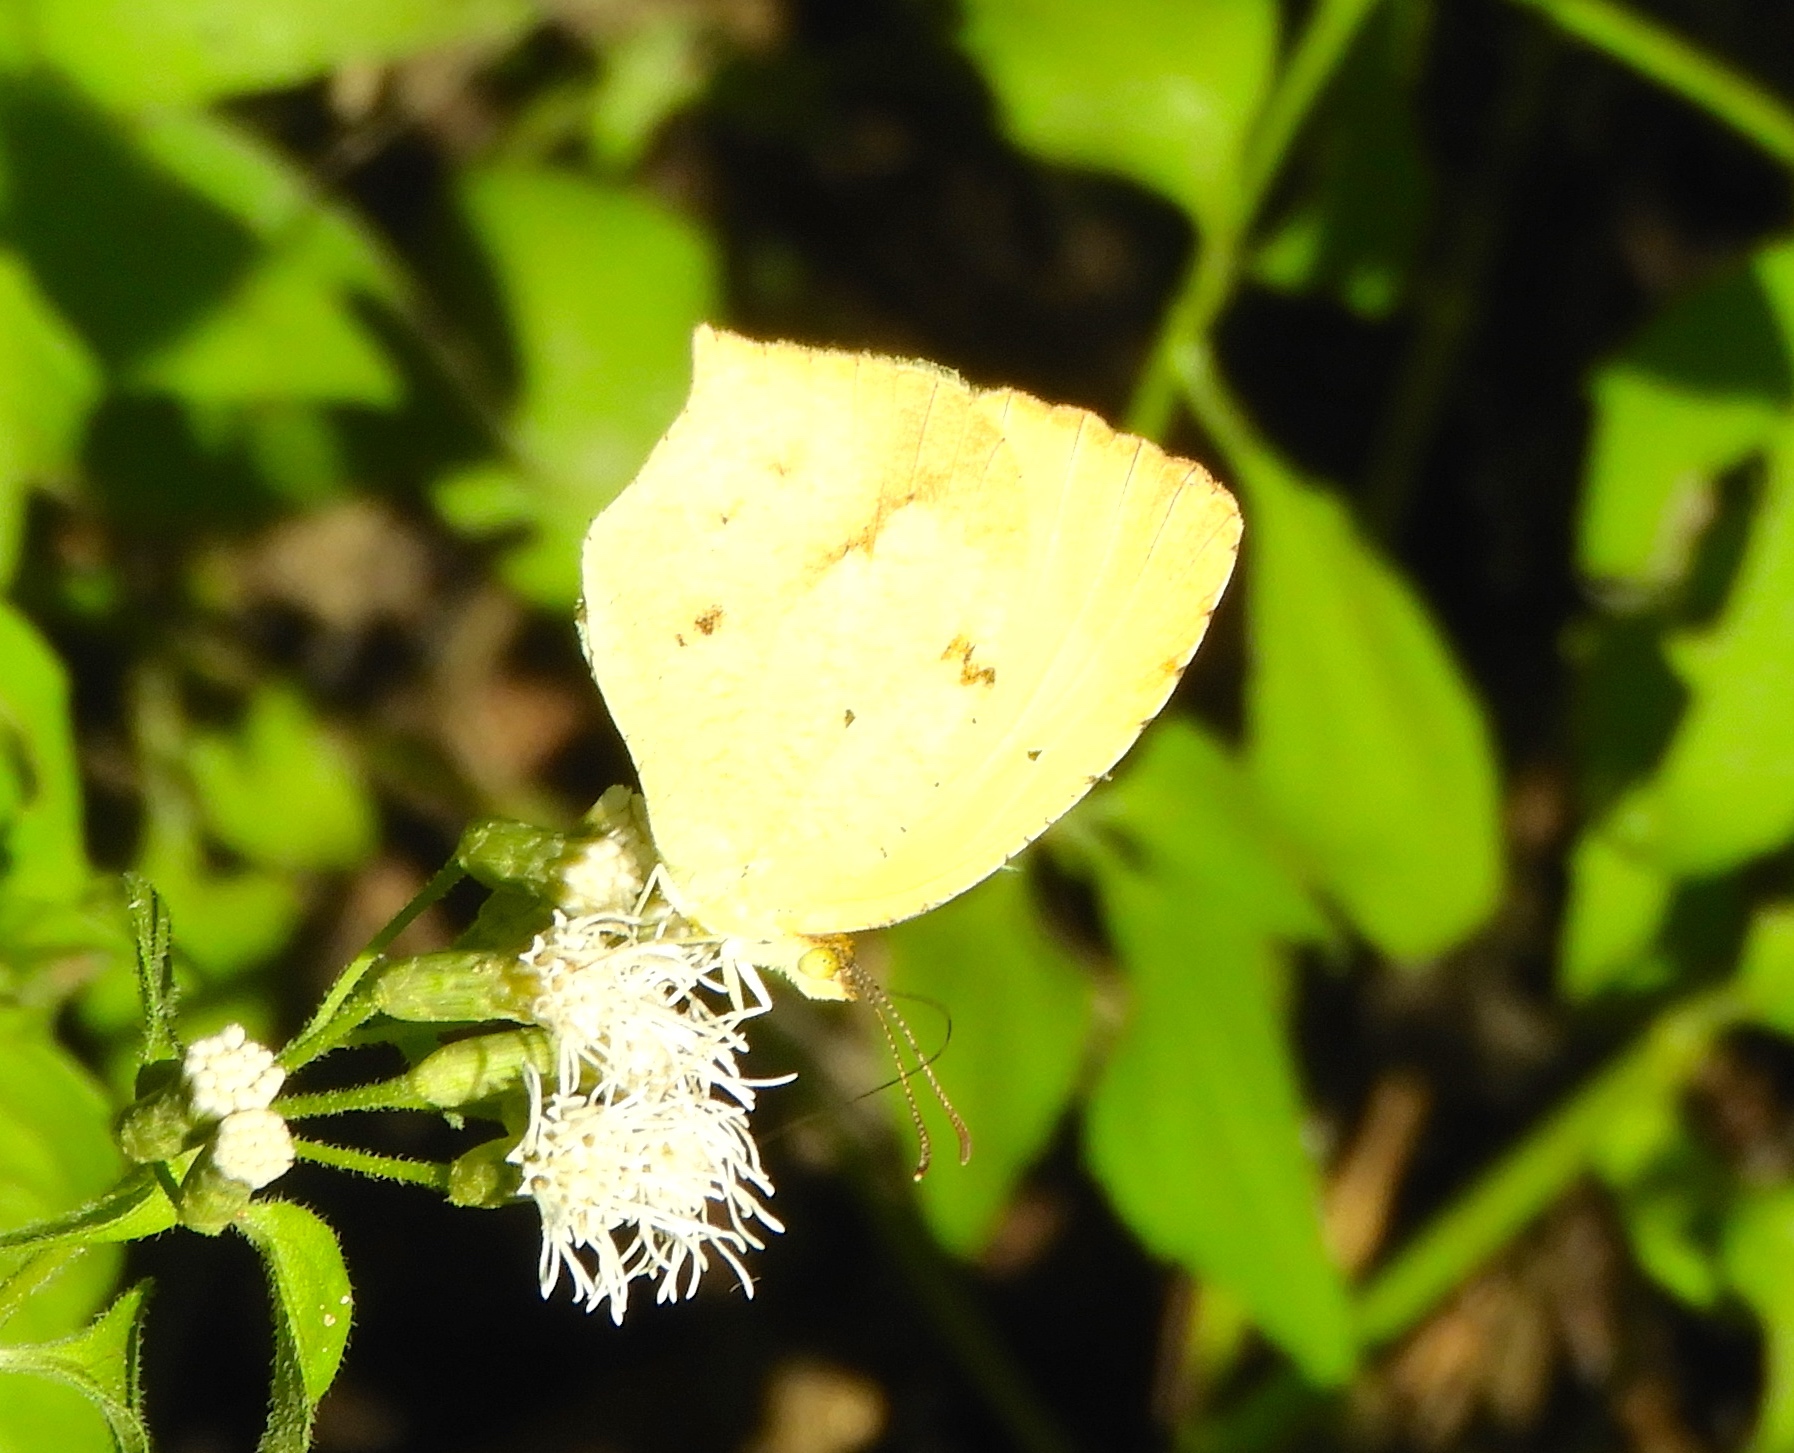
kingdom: Animalia
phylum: Arthropoda
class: Insecta
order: Lepidoptera
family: Pieridae
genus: Abaeis
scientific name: Abaeis boisduvaliana
